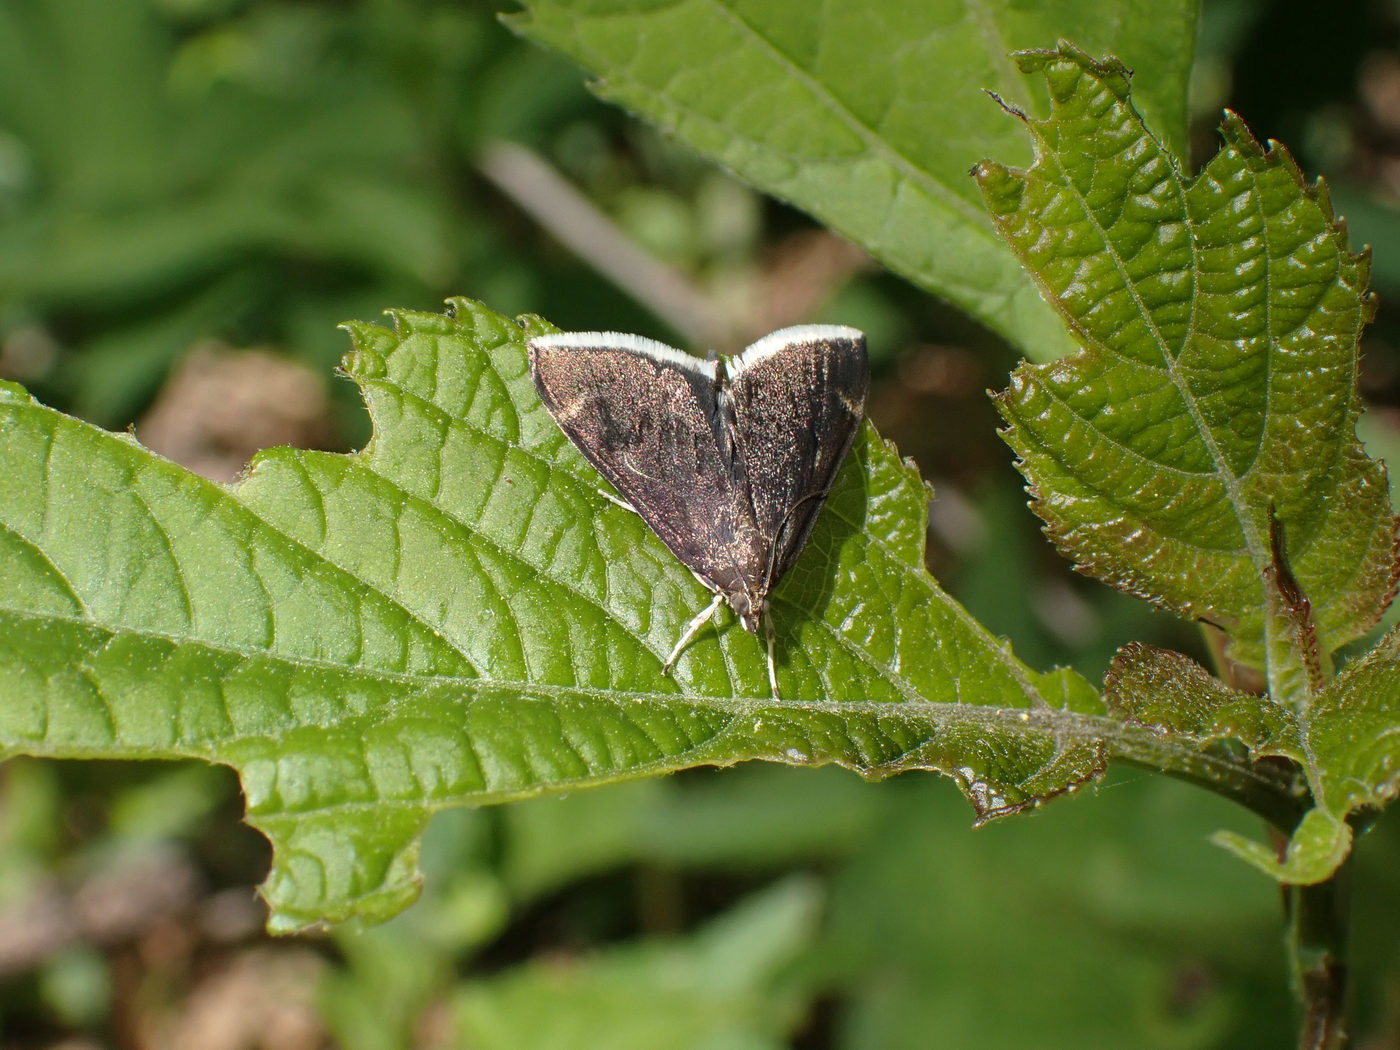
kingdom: Animalia
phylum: Arthropoda
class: Insecta
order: Lepidoptera
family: Crambidae
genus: Pyrausta
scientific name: Pyrausta niveicilialis
